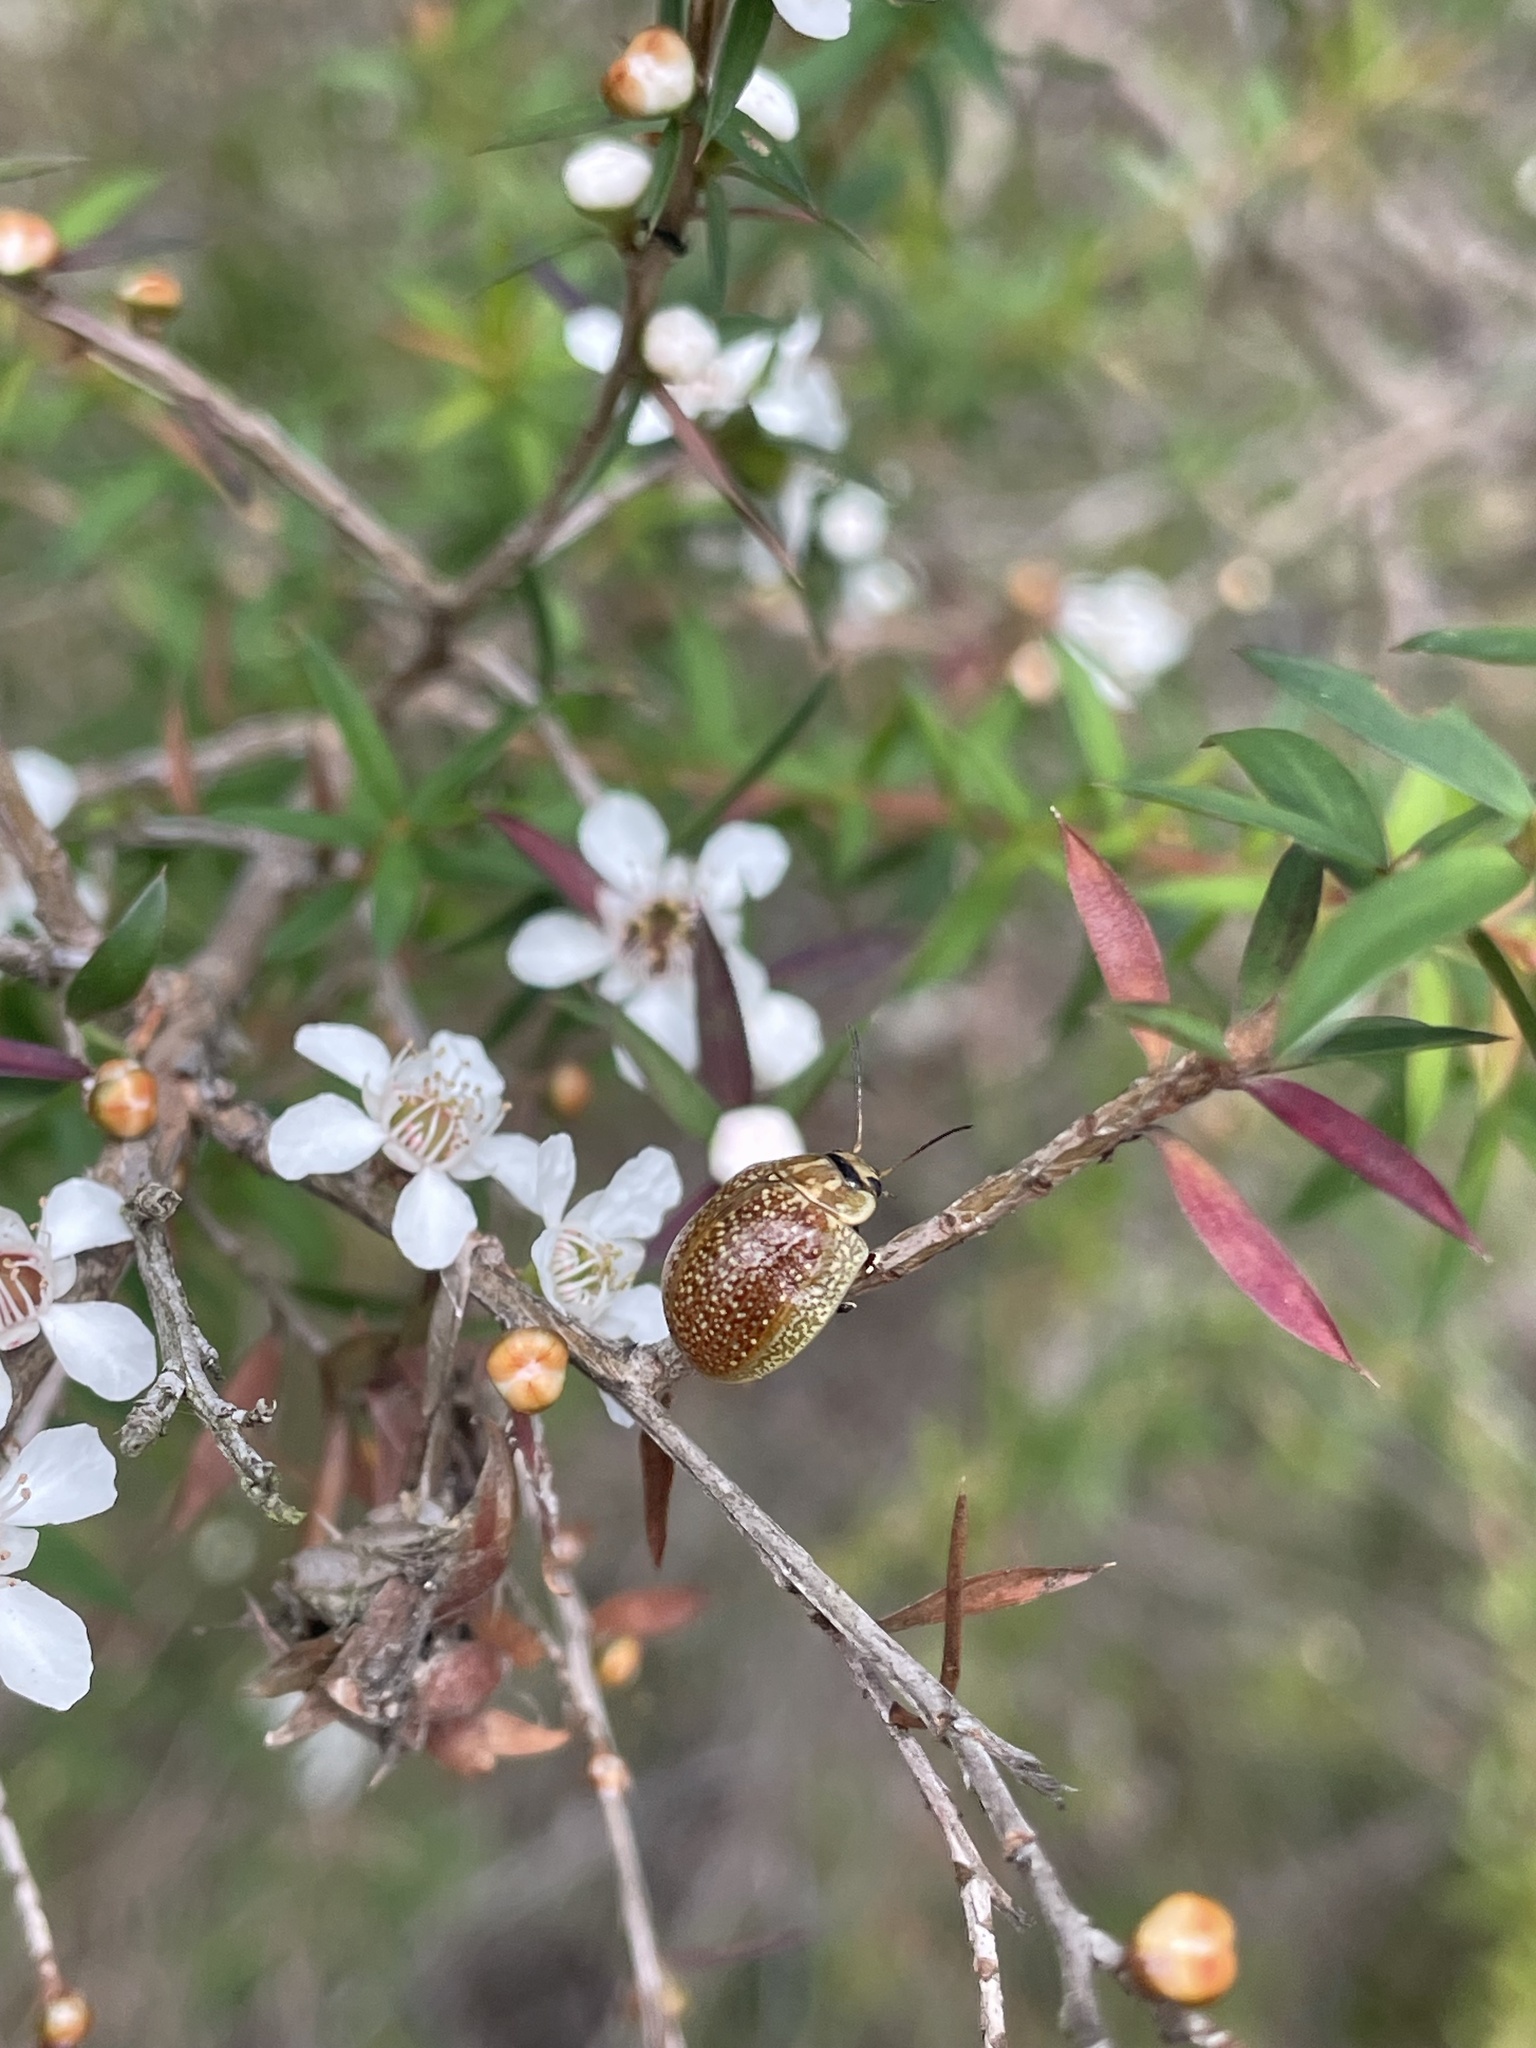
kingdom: Animalia
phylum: Arthropoda
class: Insecta
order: Coleoptera
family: Chrysomelidae
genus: Paropsisterna
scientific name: Paropsisterna cloelia
